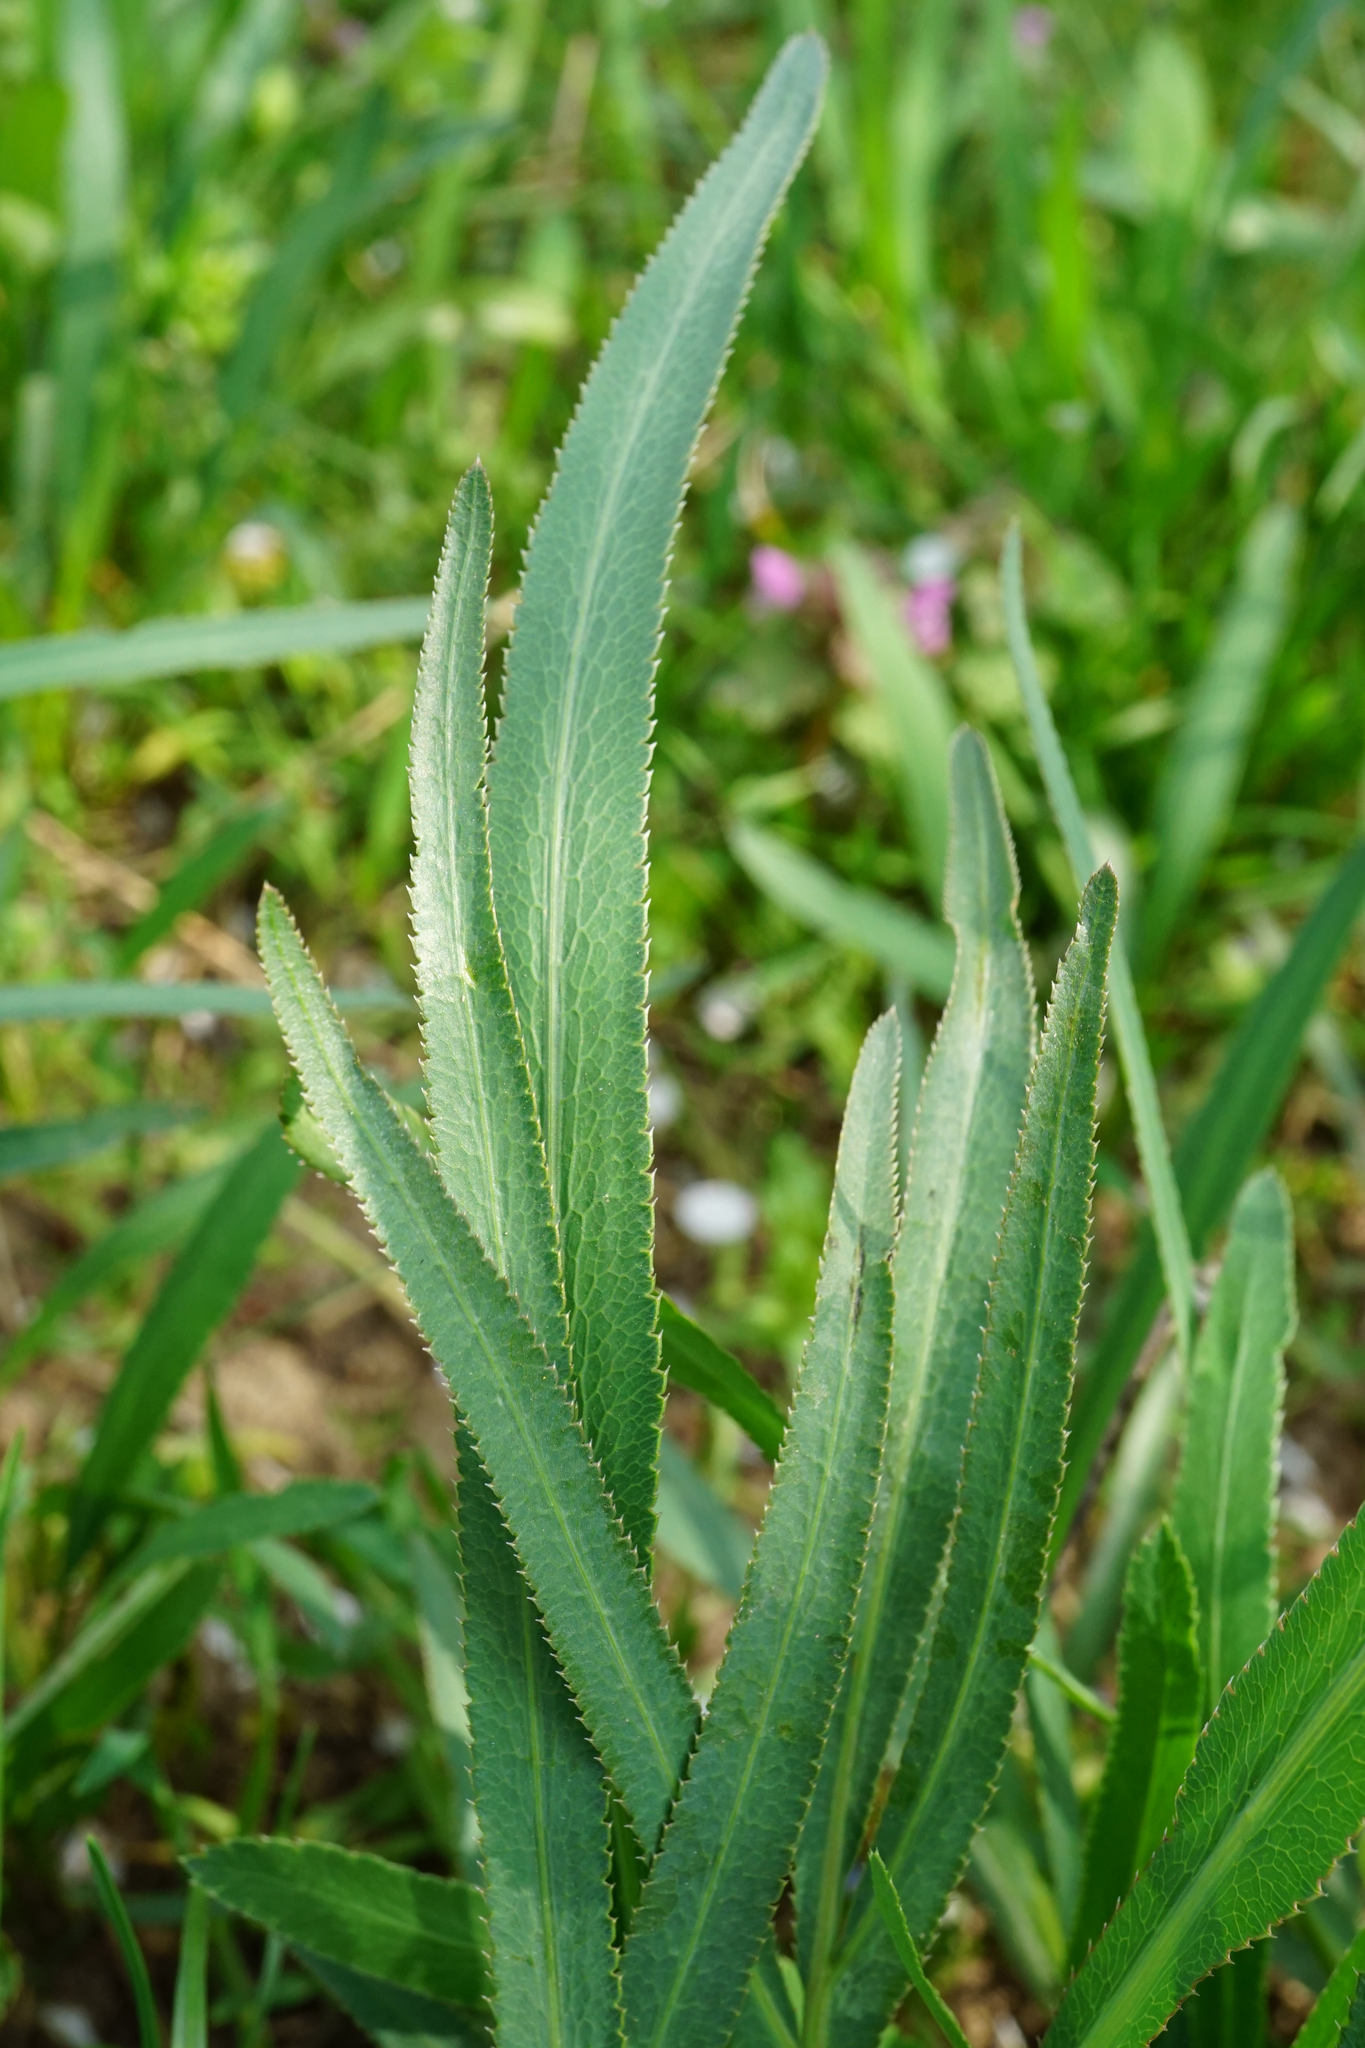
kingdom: Plantae
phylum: Tracheophyta
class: Magnoliopsida
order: Apiales
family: Apiaceae
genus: Falcaria
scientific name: Falcaria vulgaris
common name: Longleaf
